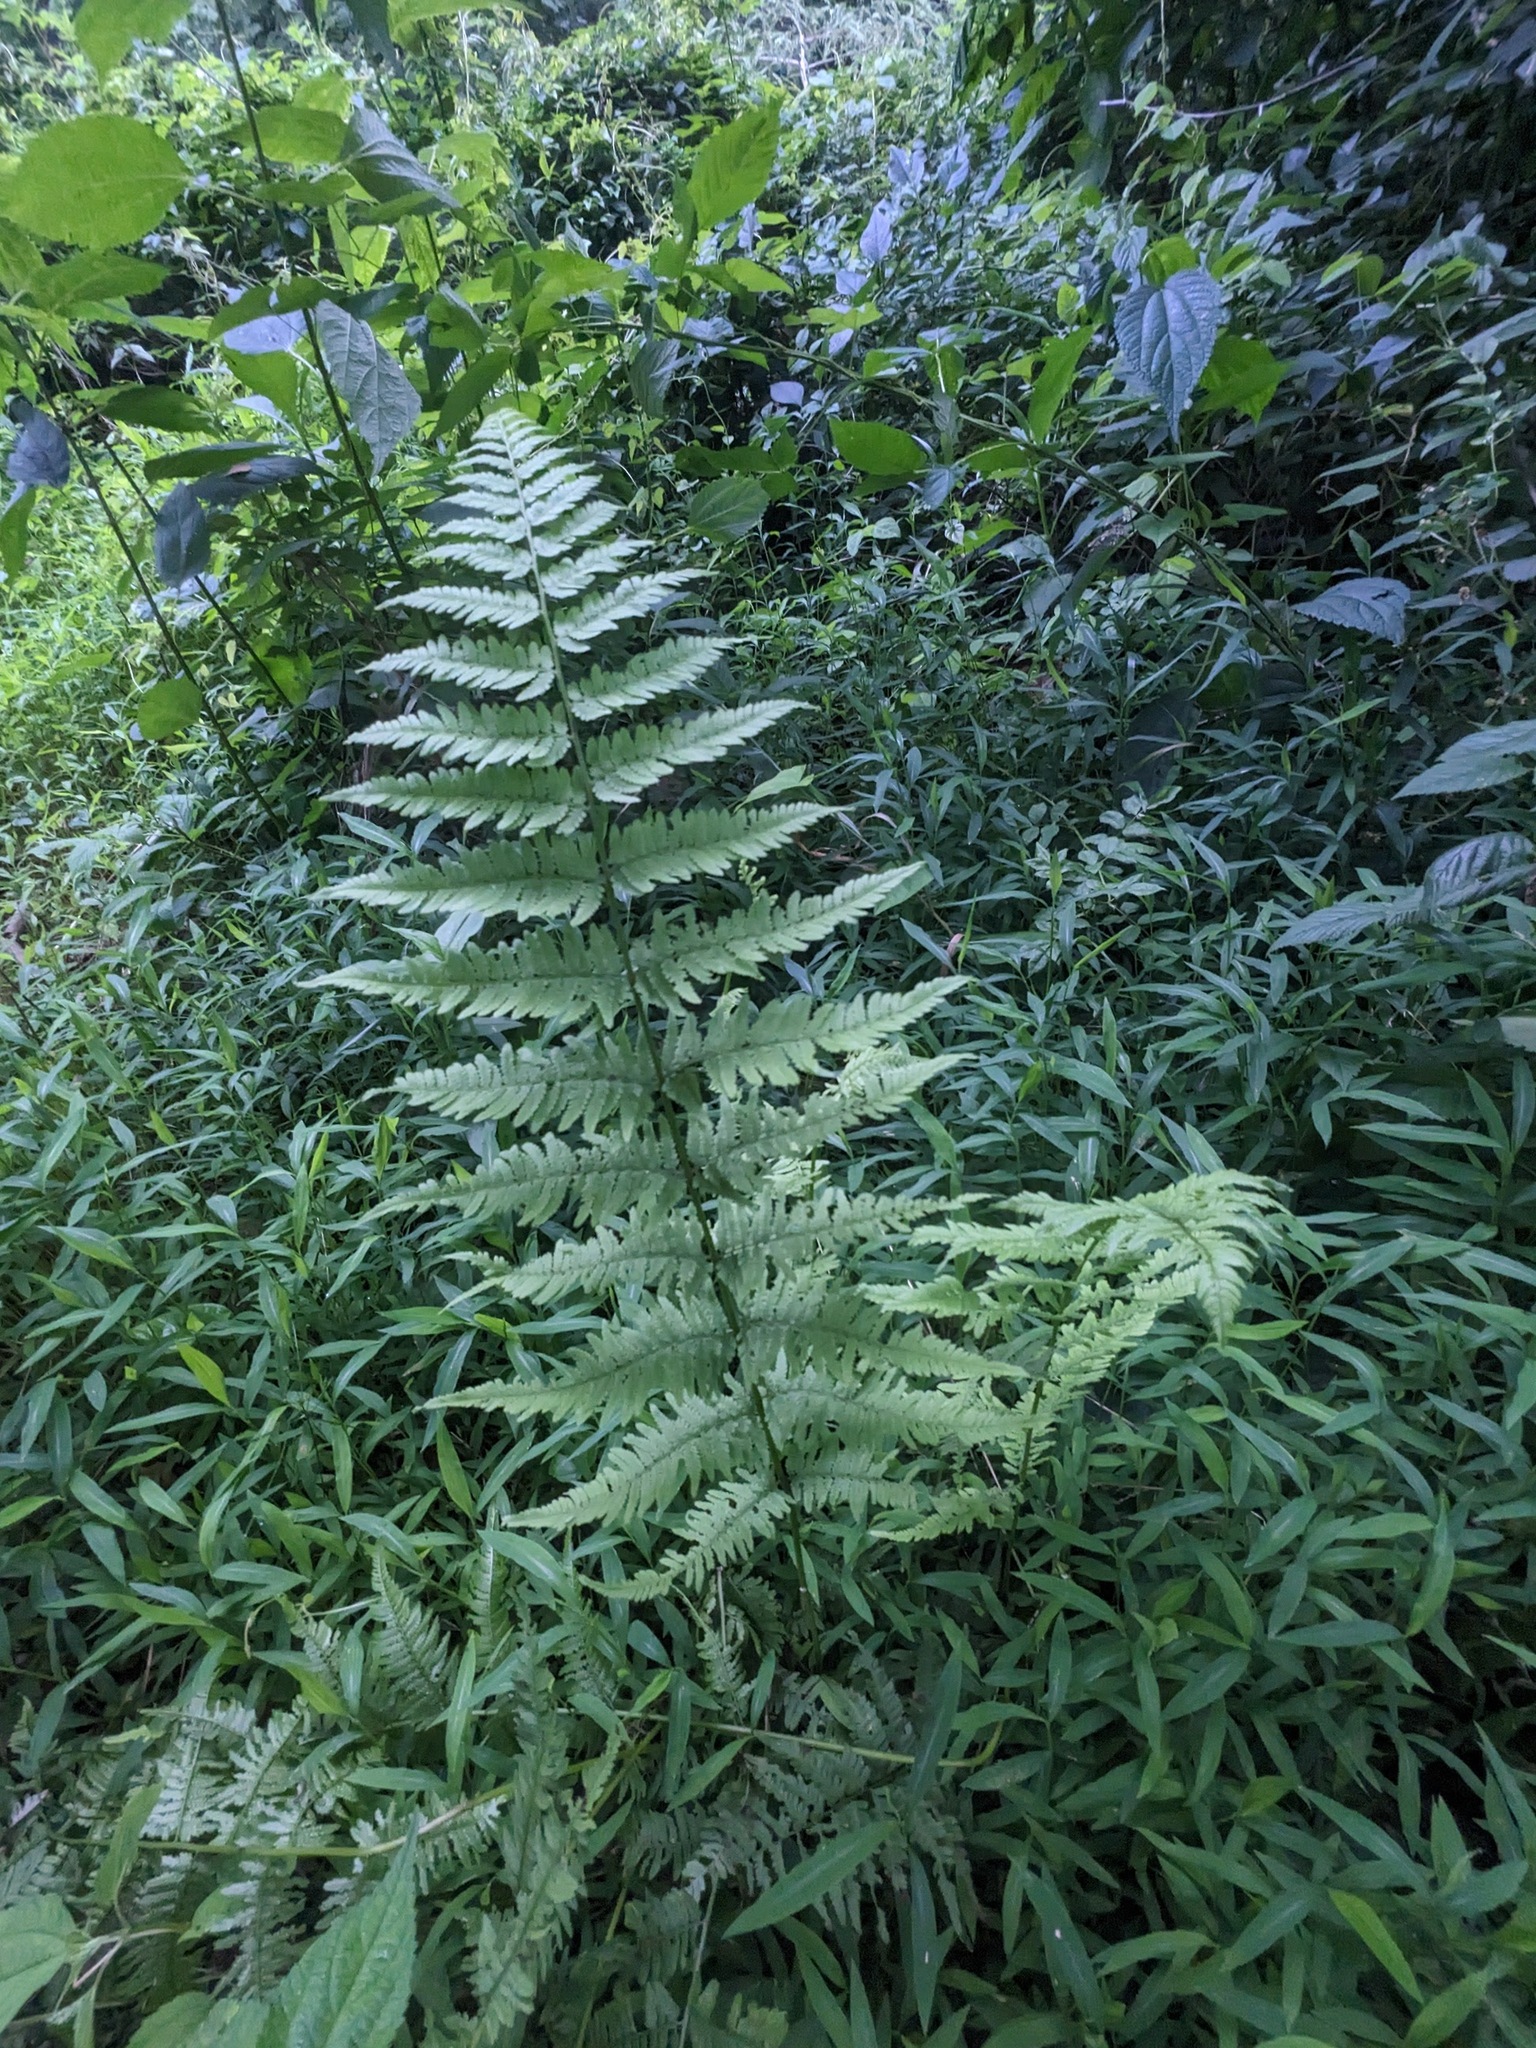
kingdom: Plantae
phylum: Tracheophyta
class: Polypodiopsida
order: Polypodiales
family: Athyriaceae
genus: Athyrium
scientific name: Athyrium asplenioides
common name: Southern lady fern
